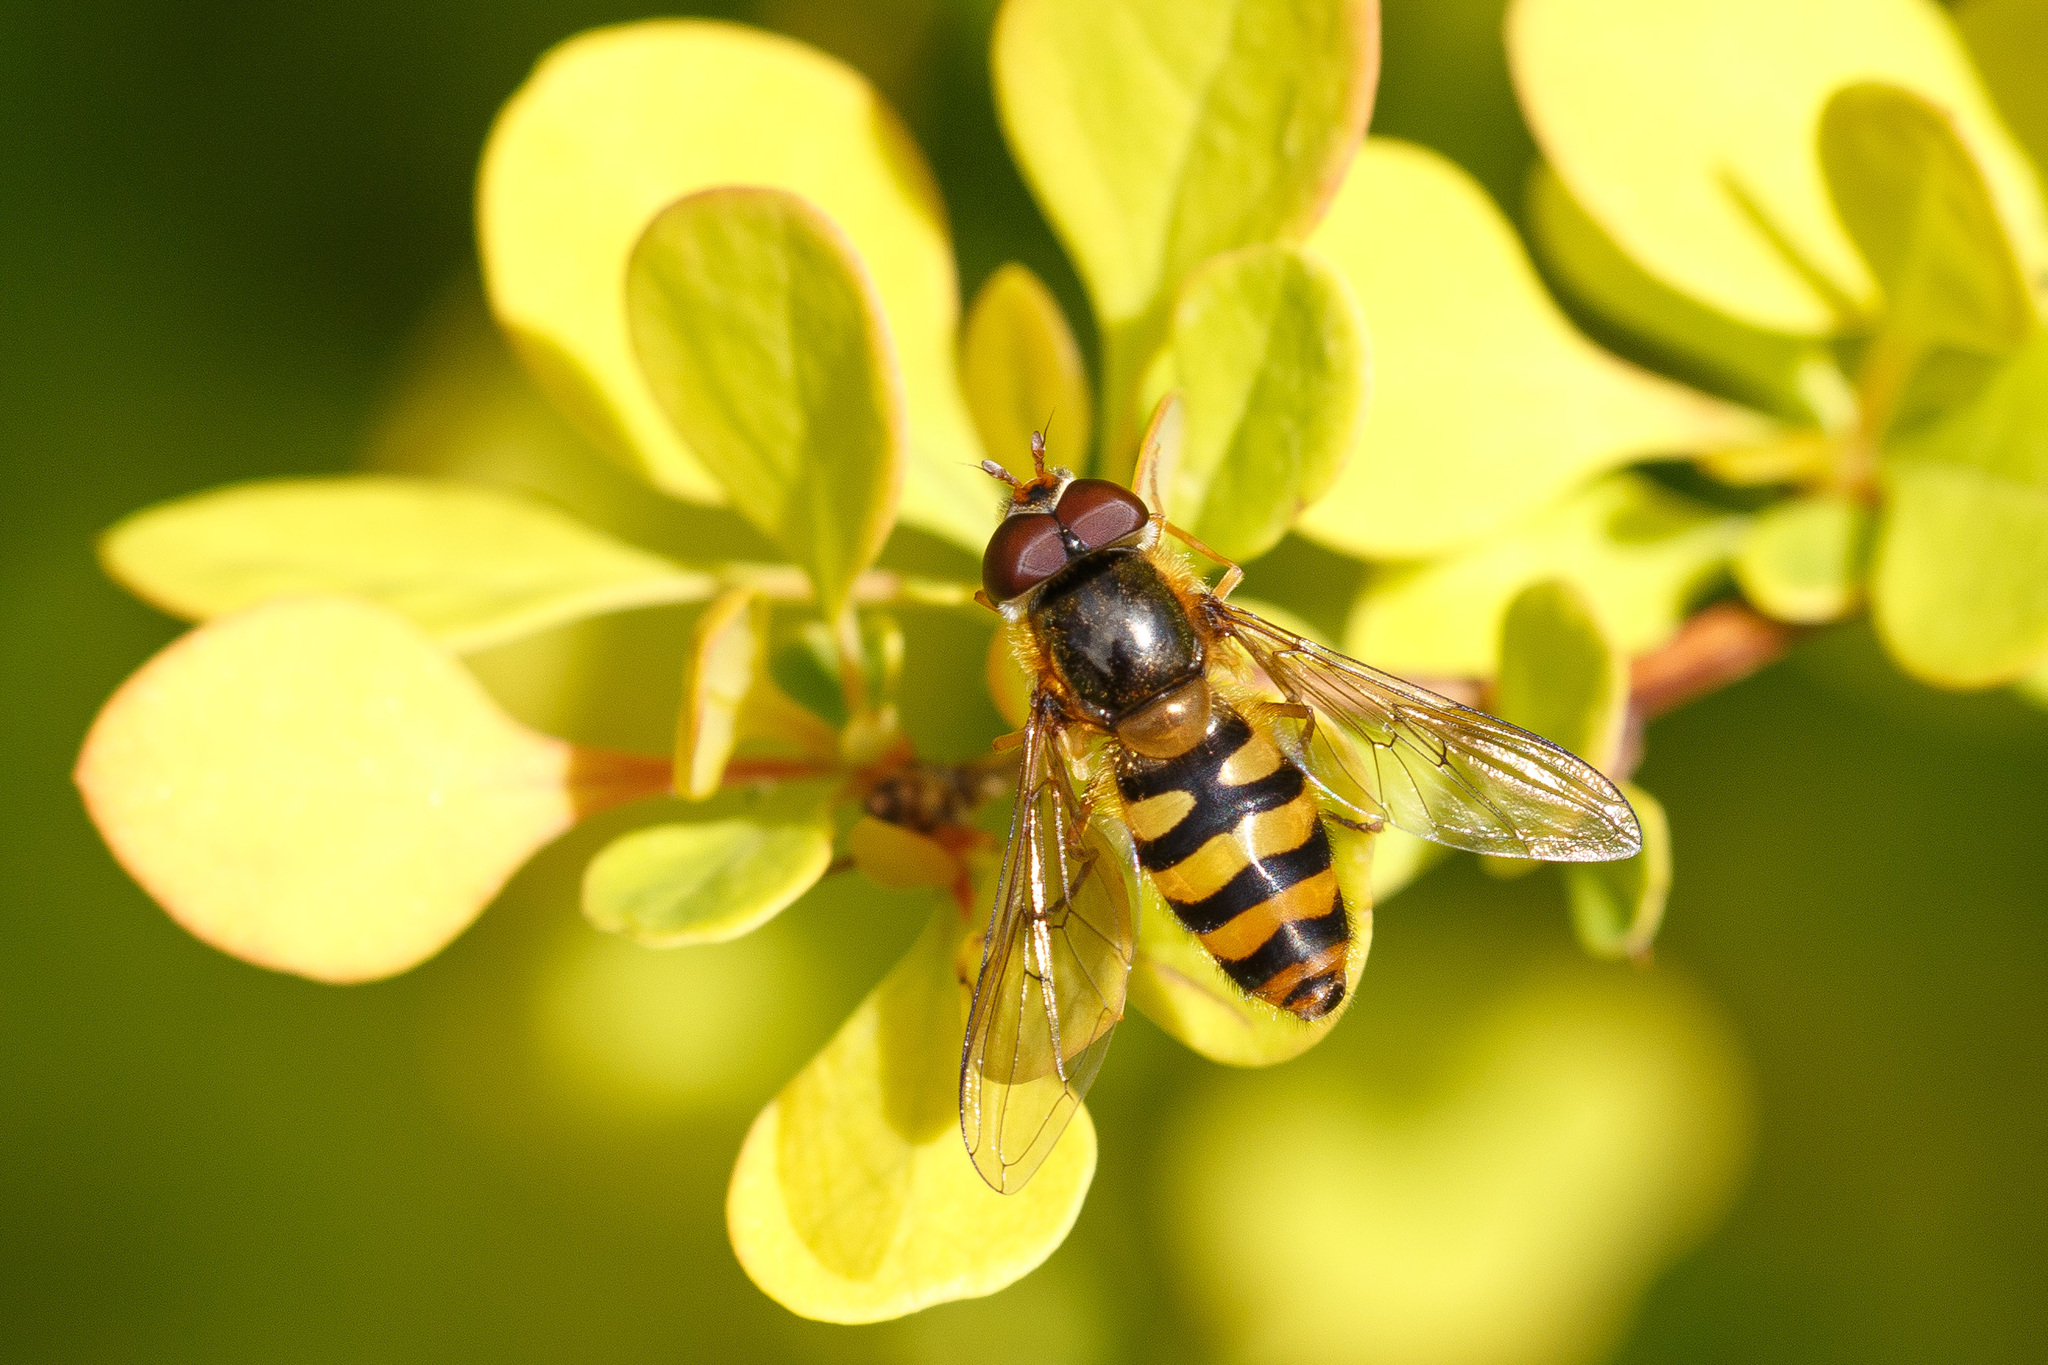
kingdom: Animalia
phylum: Arthropoda
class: Insecta
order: Diptera
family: Syrphidae
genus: Epistrophe
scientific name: Epistrophe nitidicollis
